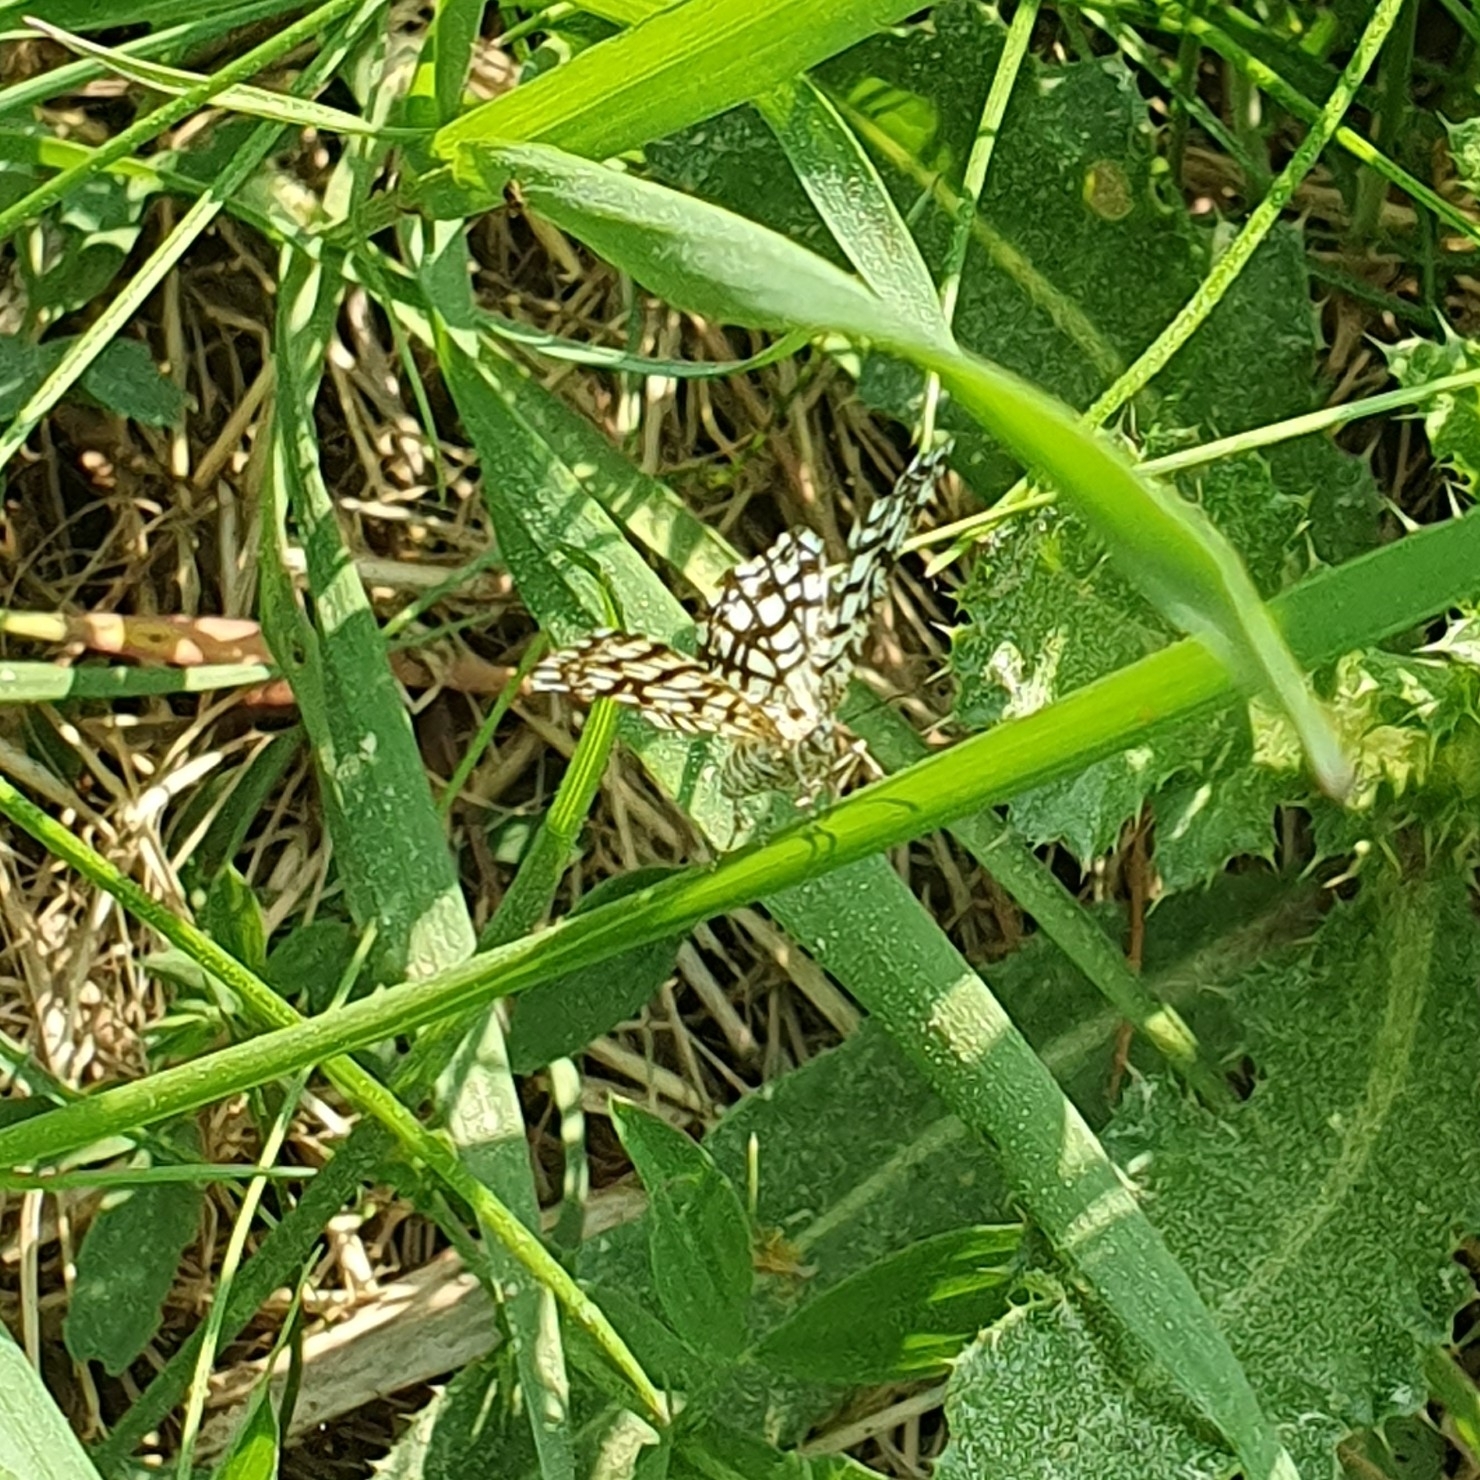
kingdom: Animalia
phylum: Arthropoda
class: Insecta
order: Lepidoptera
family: Geometridae
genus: Chiasmia
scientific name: Chiasmia clathrata
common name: Latticed heath
